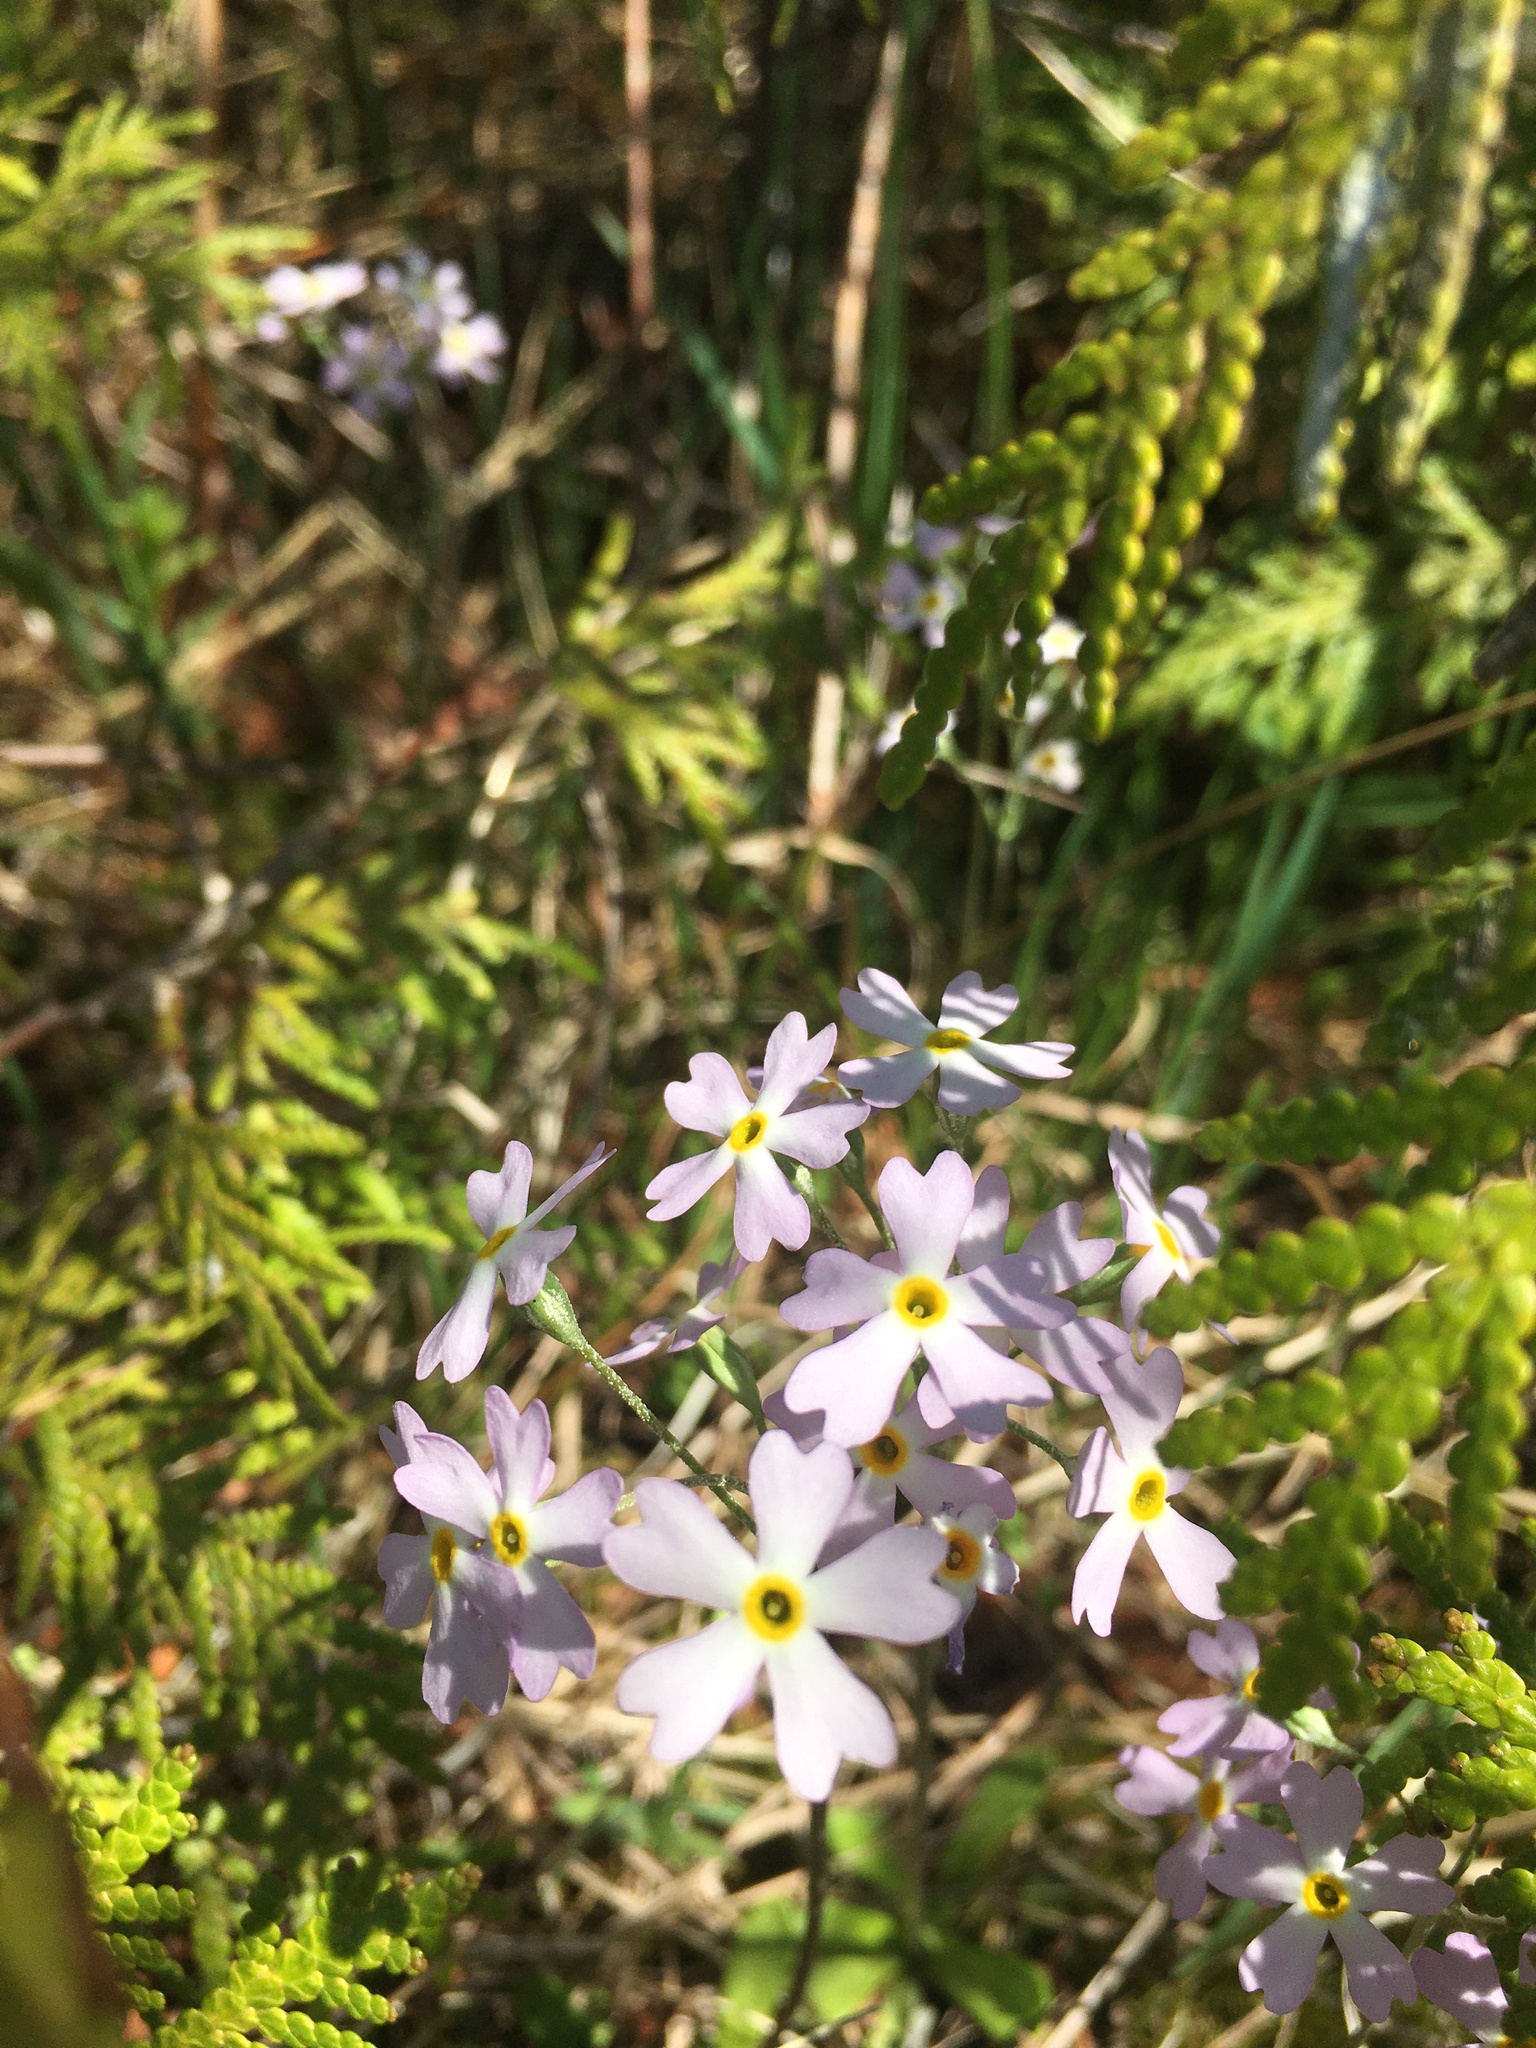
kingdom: Plantae
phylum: Tracheophyta
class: Magnoliopsida
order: Ericales
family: Primulaceae
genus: Primula
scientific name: Primula mistassinica
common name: Bird's-eye primrose
